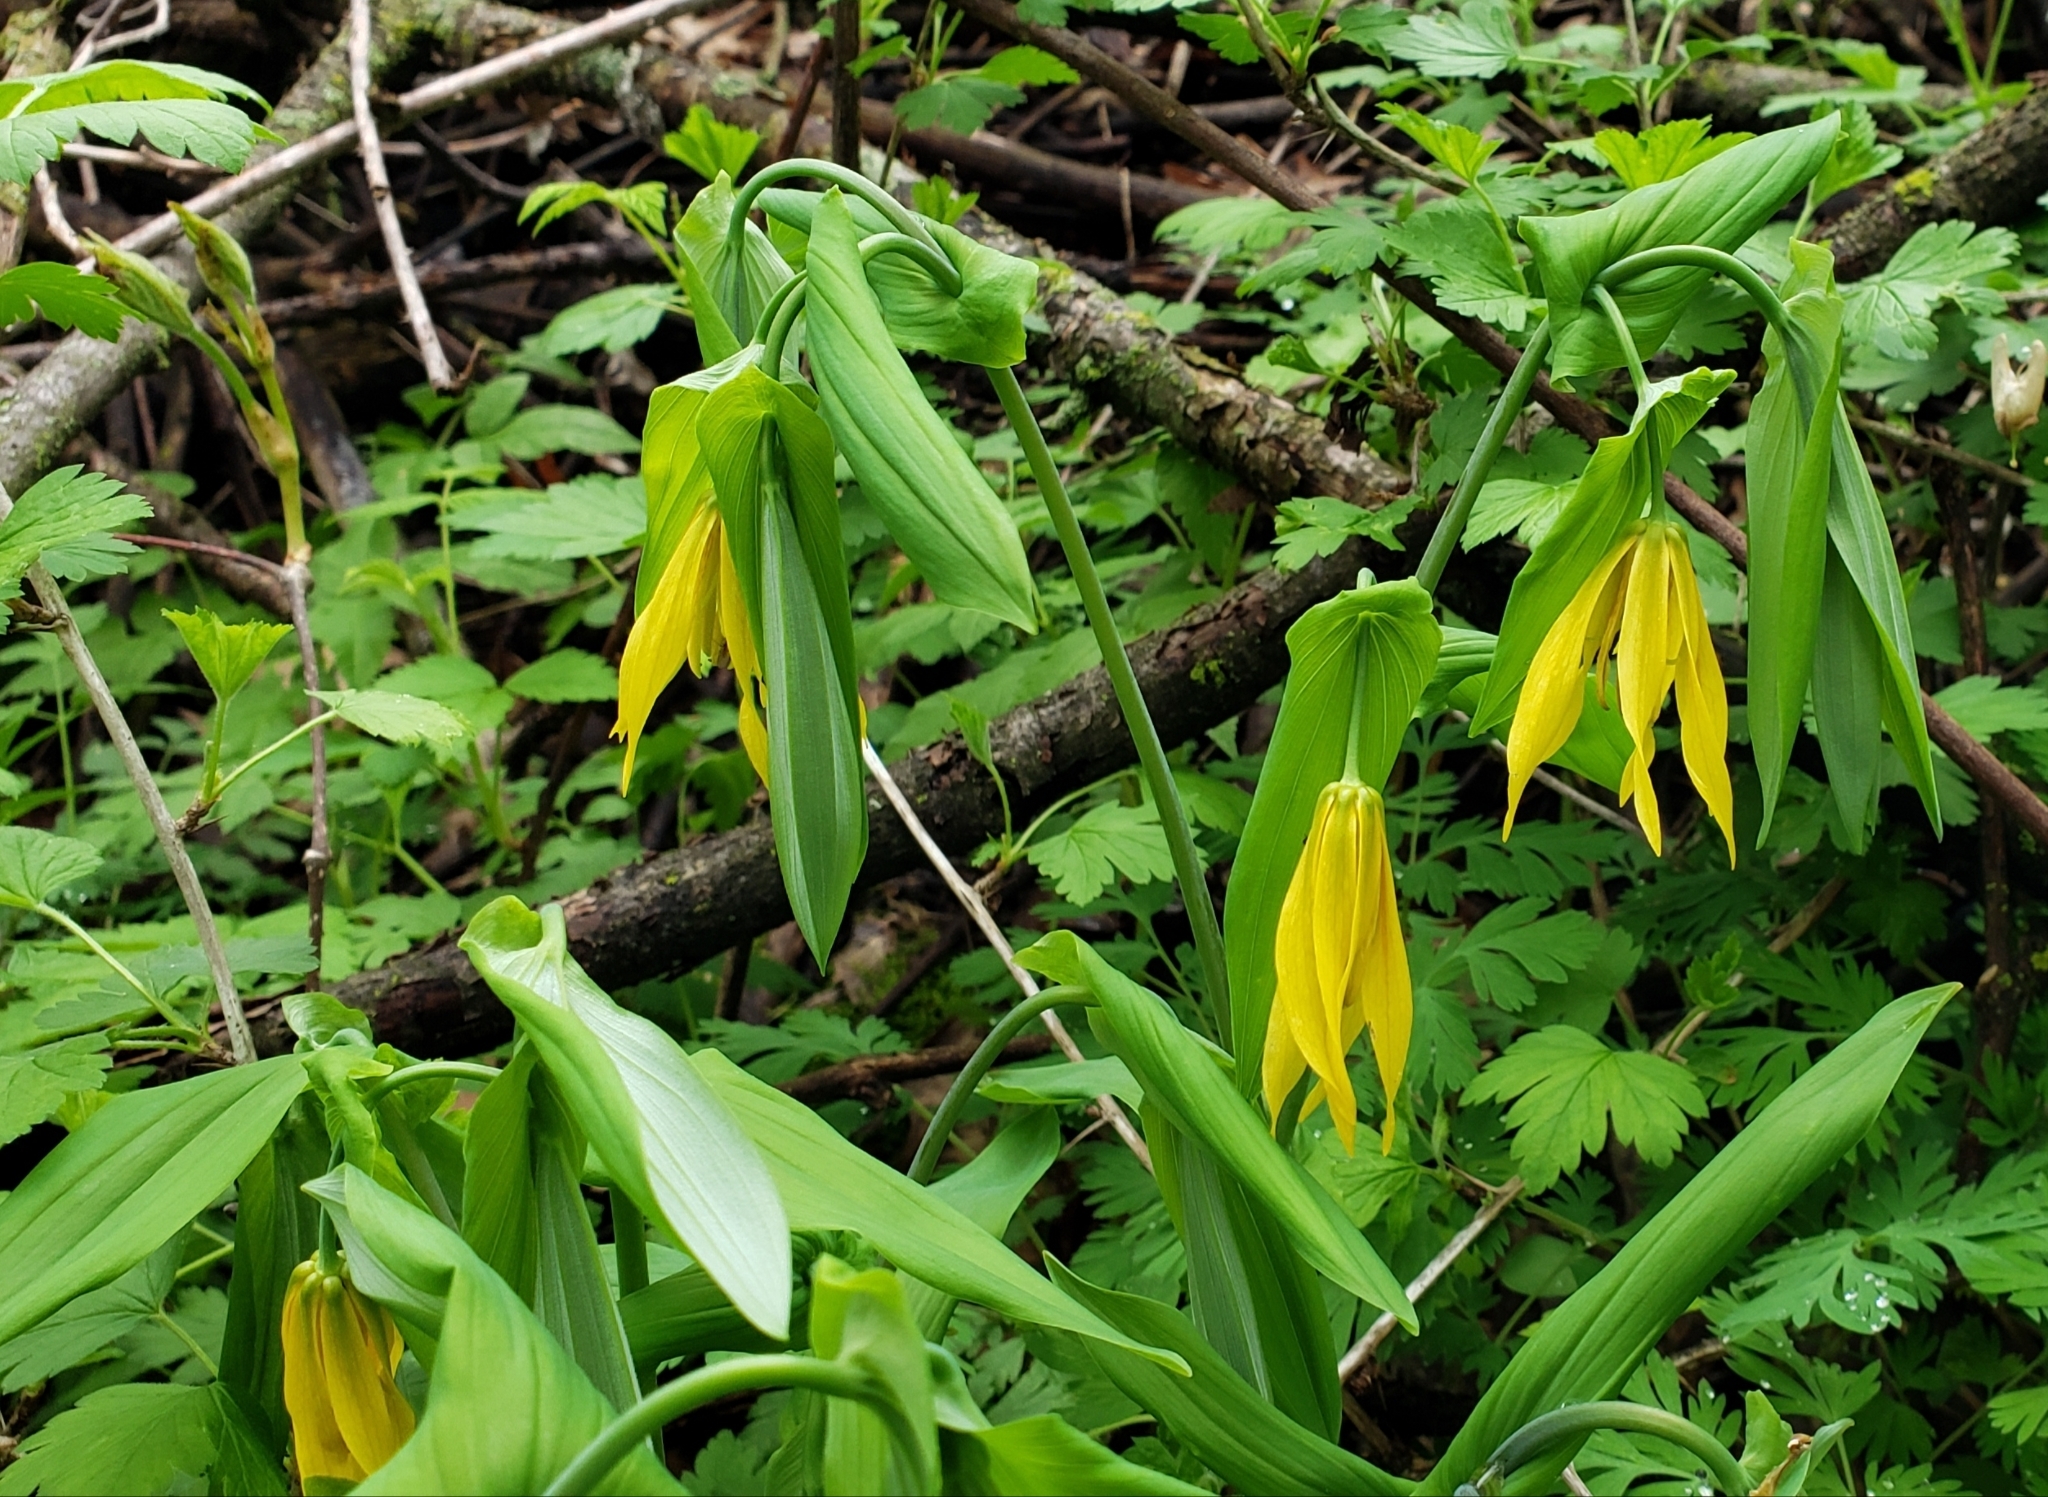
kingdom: Plantae
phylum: Tracheophyta
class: Liliopsida
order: Liliales
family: Colchicaceae
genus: Uvularia
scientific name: Uvularia grandiflora
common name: Bellwort
